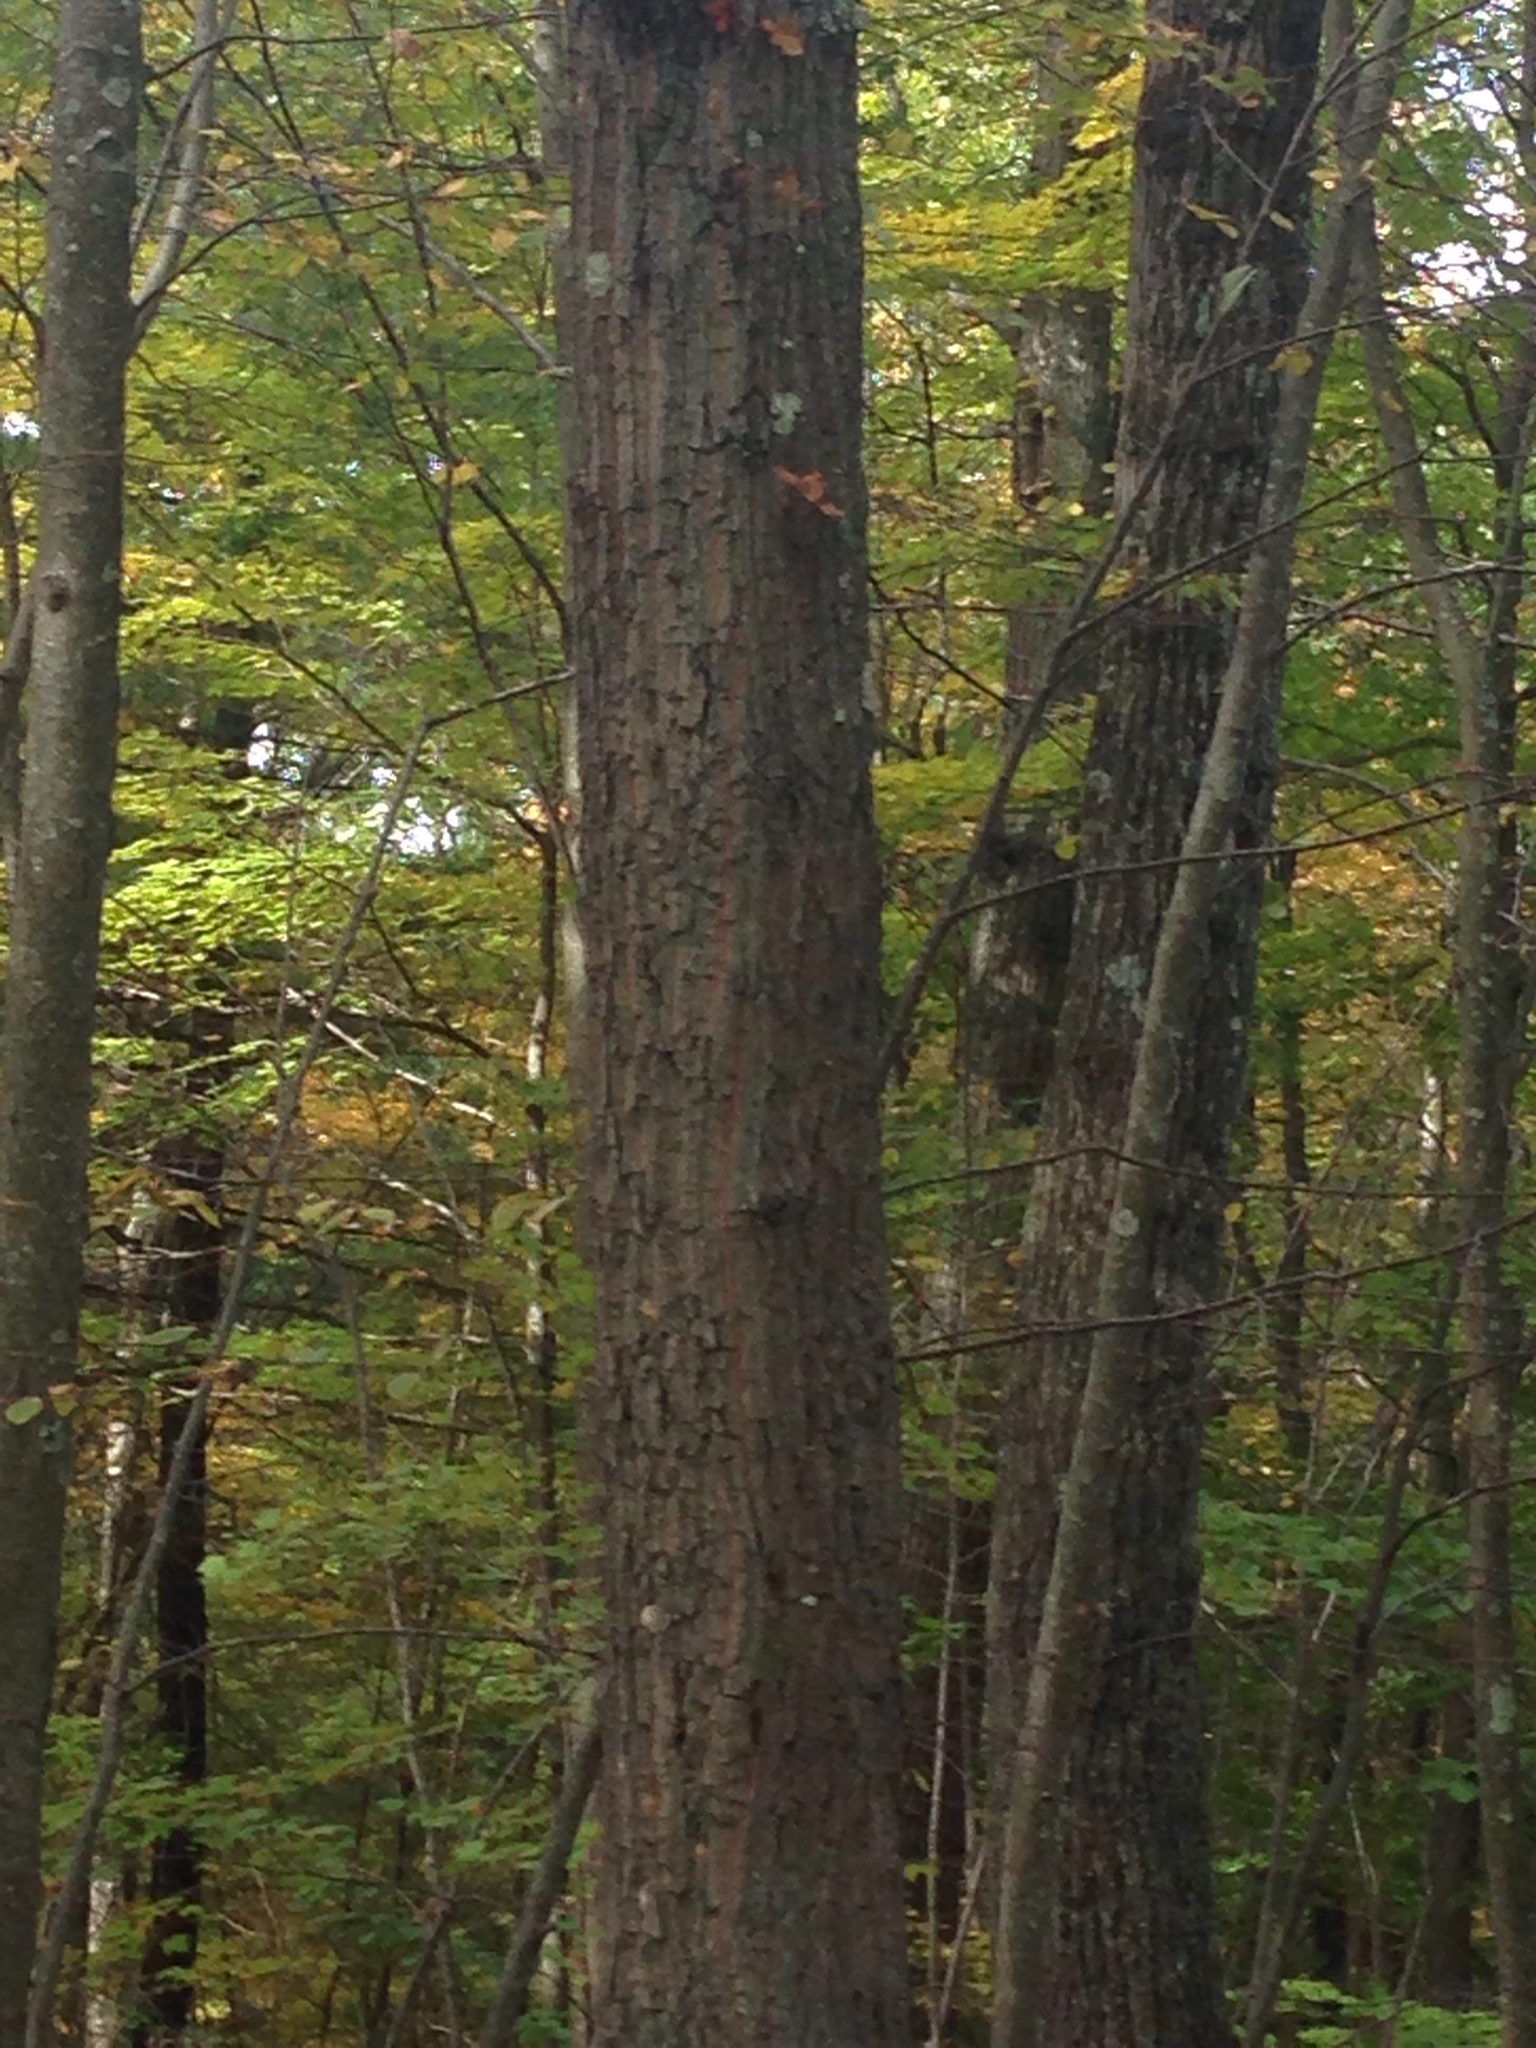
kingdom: Plantae
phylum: Tracheophyta
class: Magnoliopsida
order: Fagales
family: Fagaceae
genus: Quercus
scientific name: Quercus montana
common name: Chestnut oak
